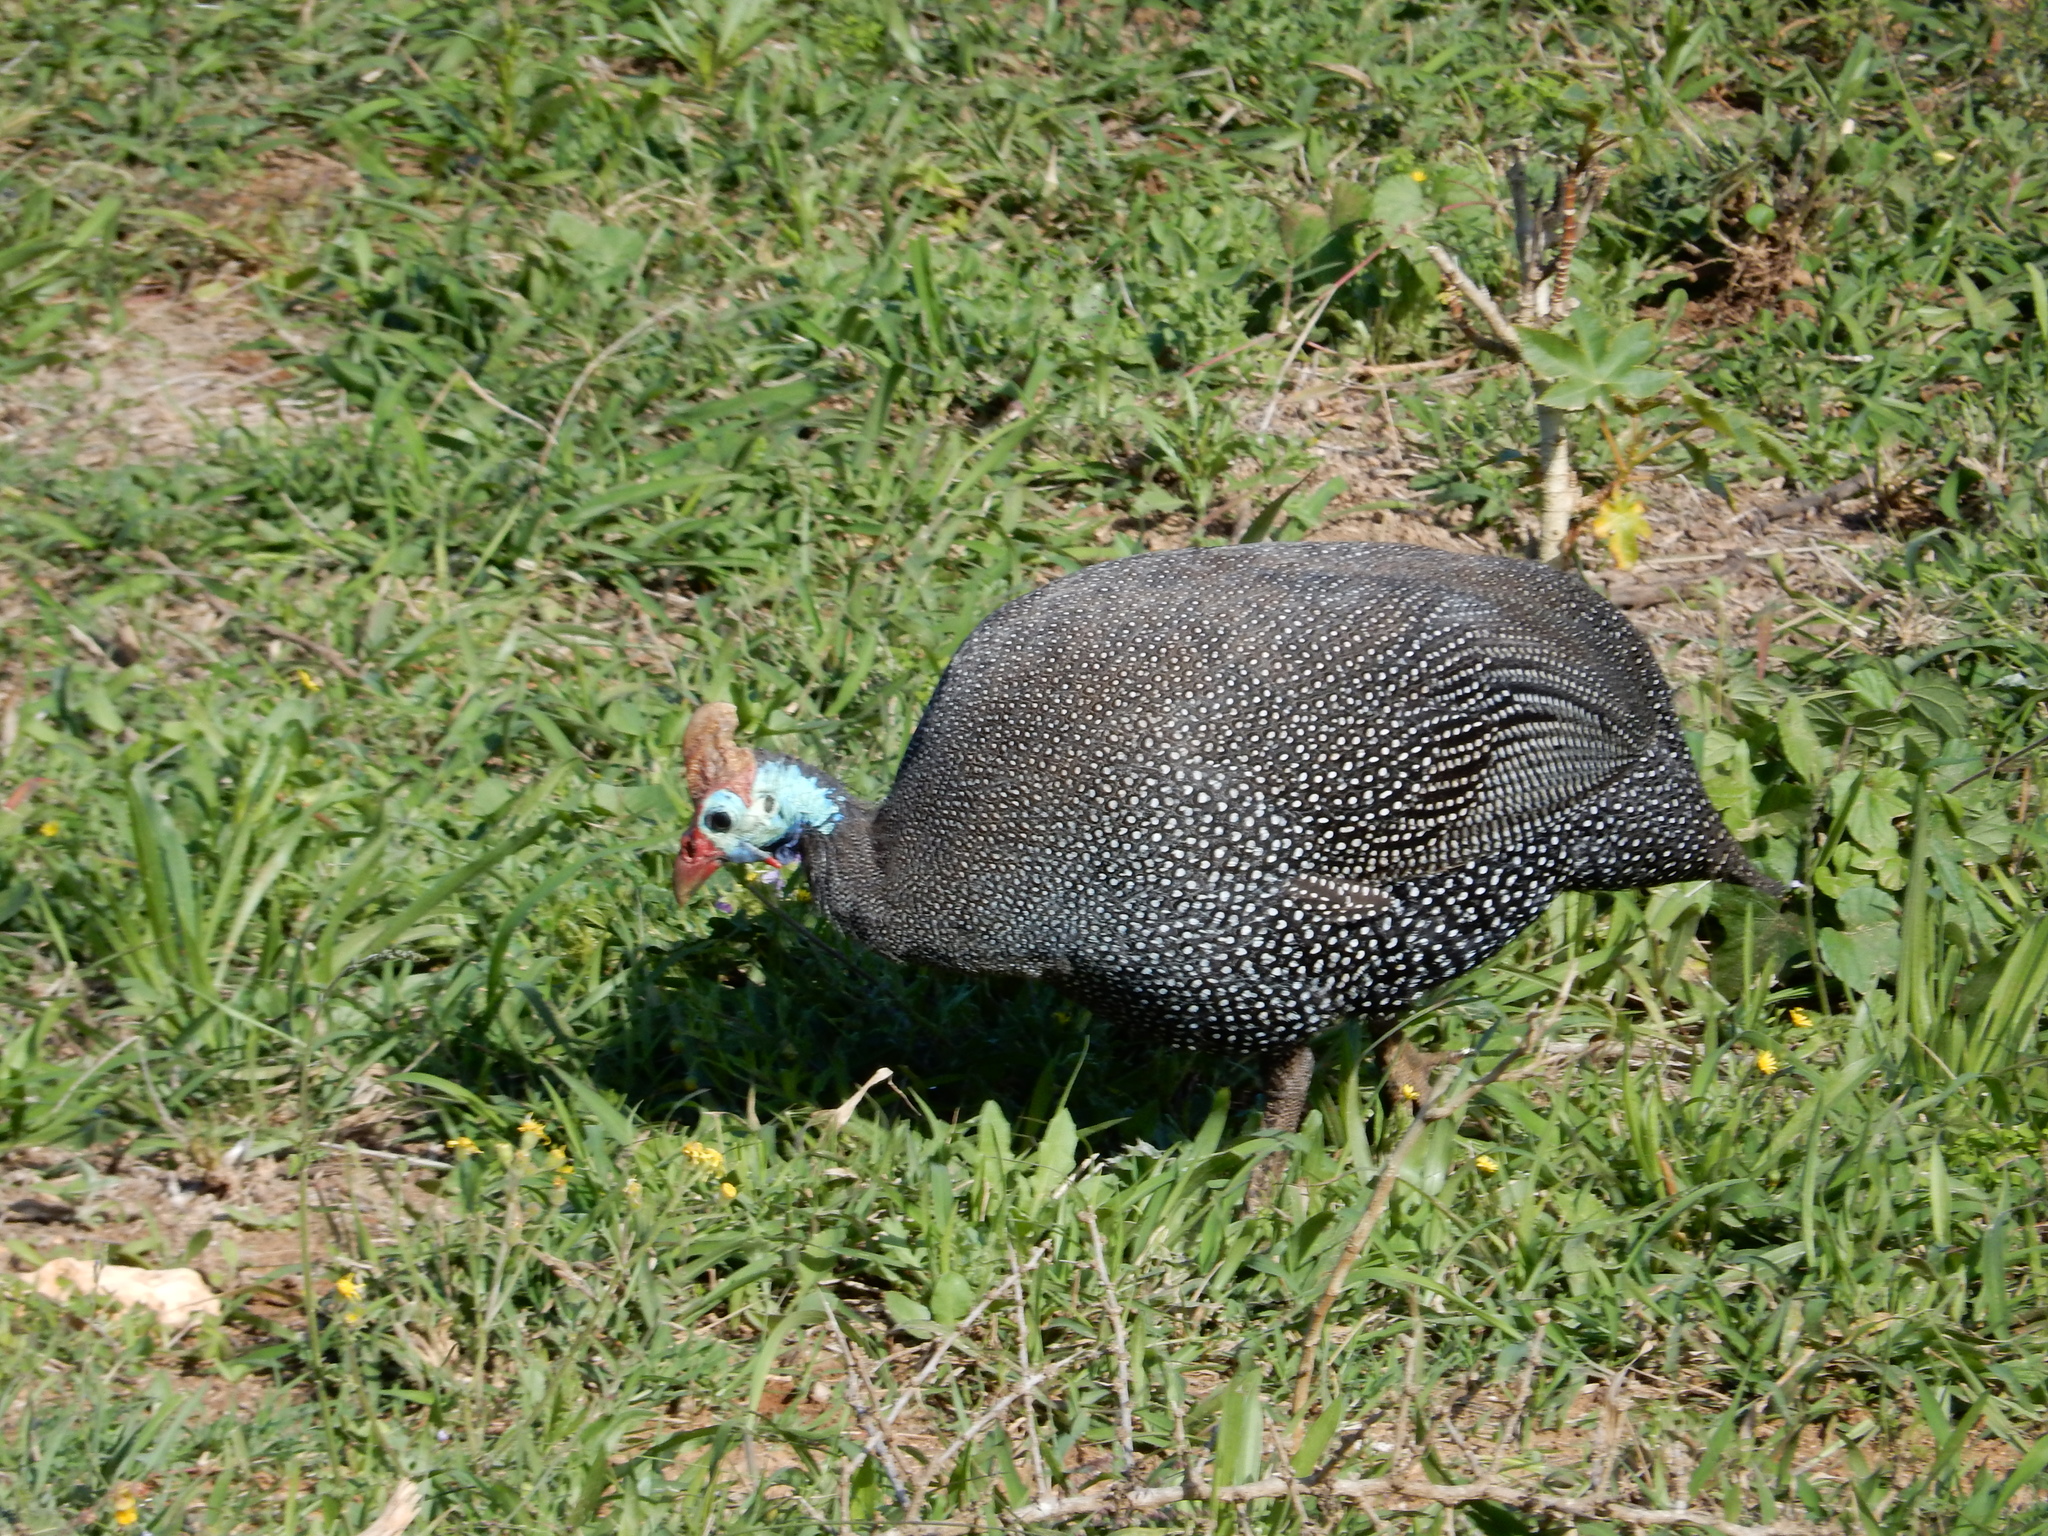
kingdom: Animalia
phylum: Chordata
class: Aves
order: Galliformes
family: Numididae
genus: Numida
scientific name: Numida meleagris
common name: Helmeted guineafowl
